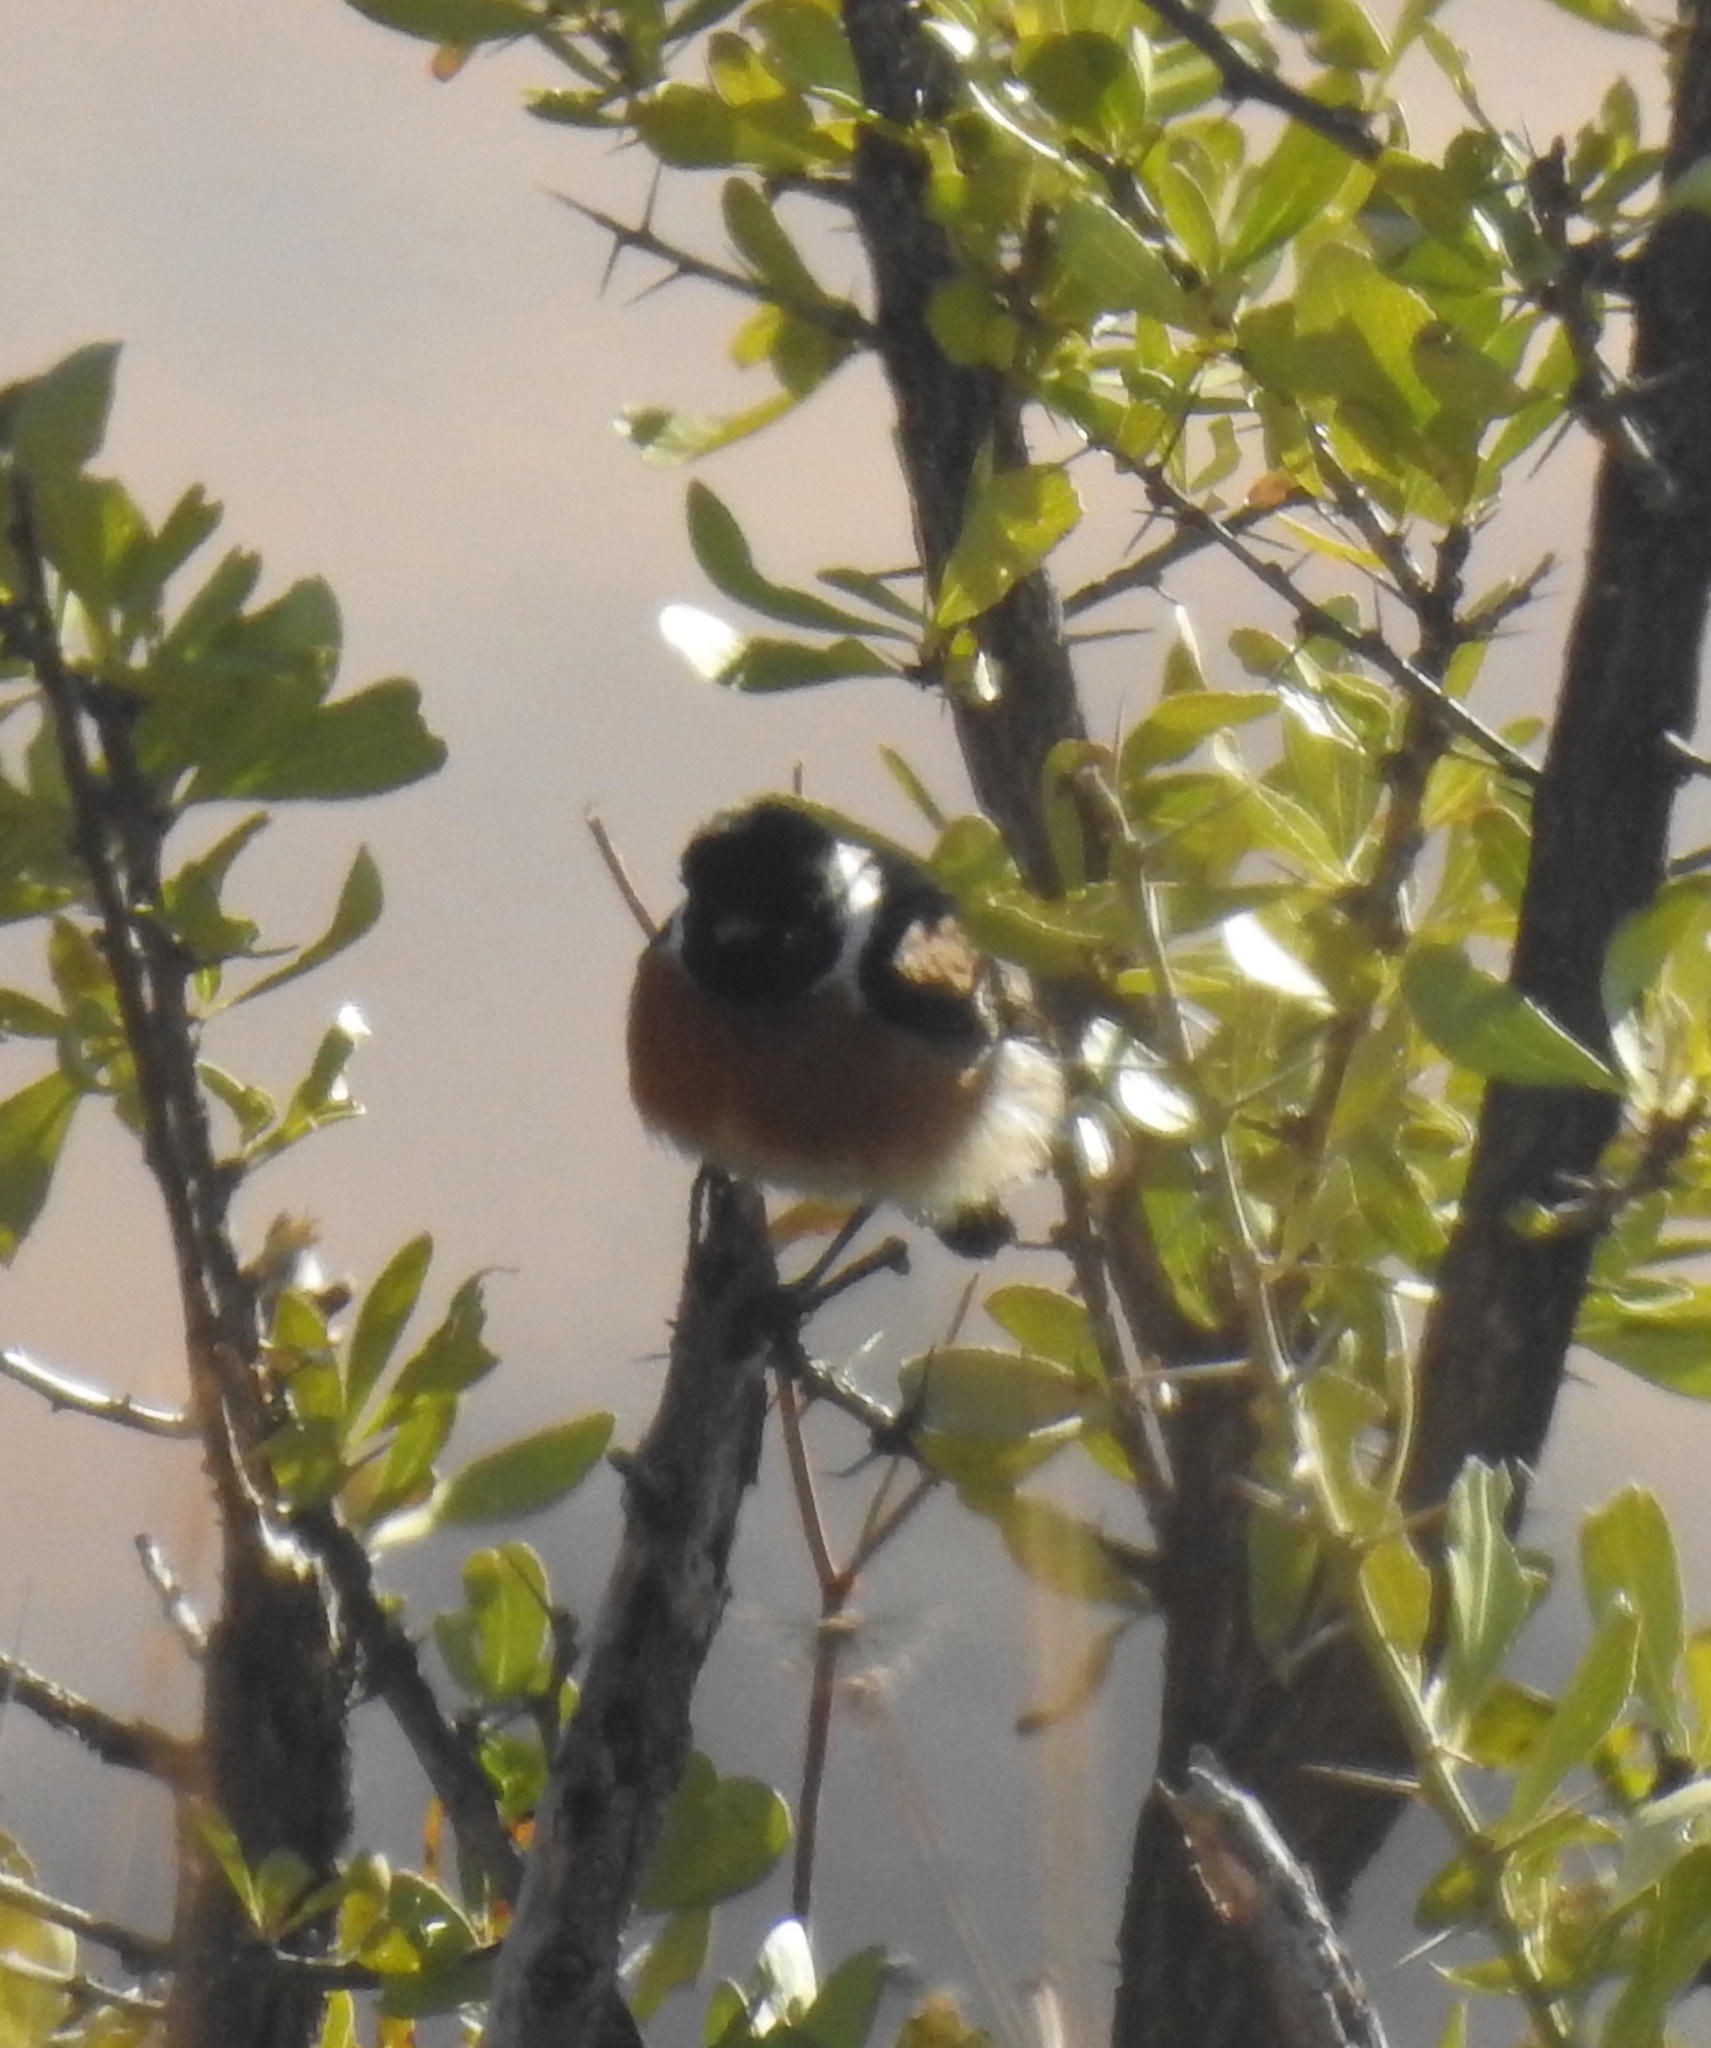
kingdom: Animalia
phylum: Chordata
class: Aves
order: Passeriformes
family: Muscicapidae
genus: Saxicola
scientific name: Saxicola torquatus
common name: African stonechat
